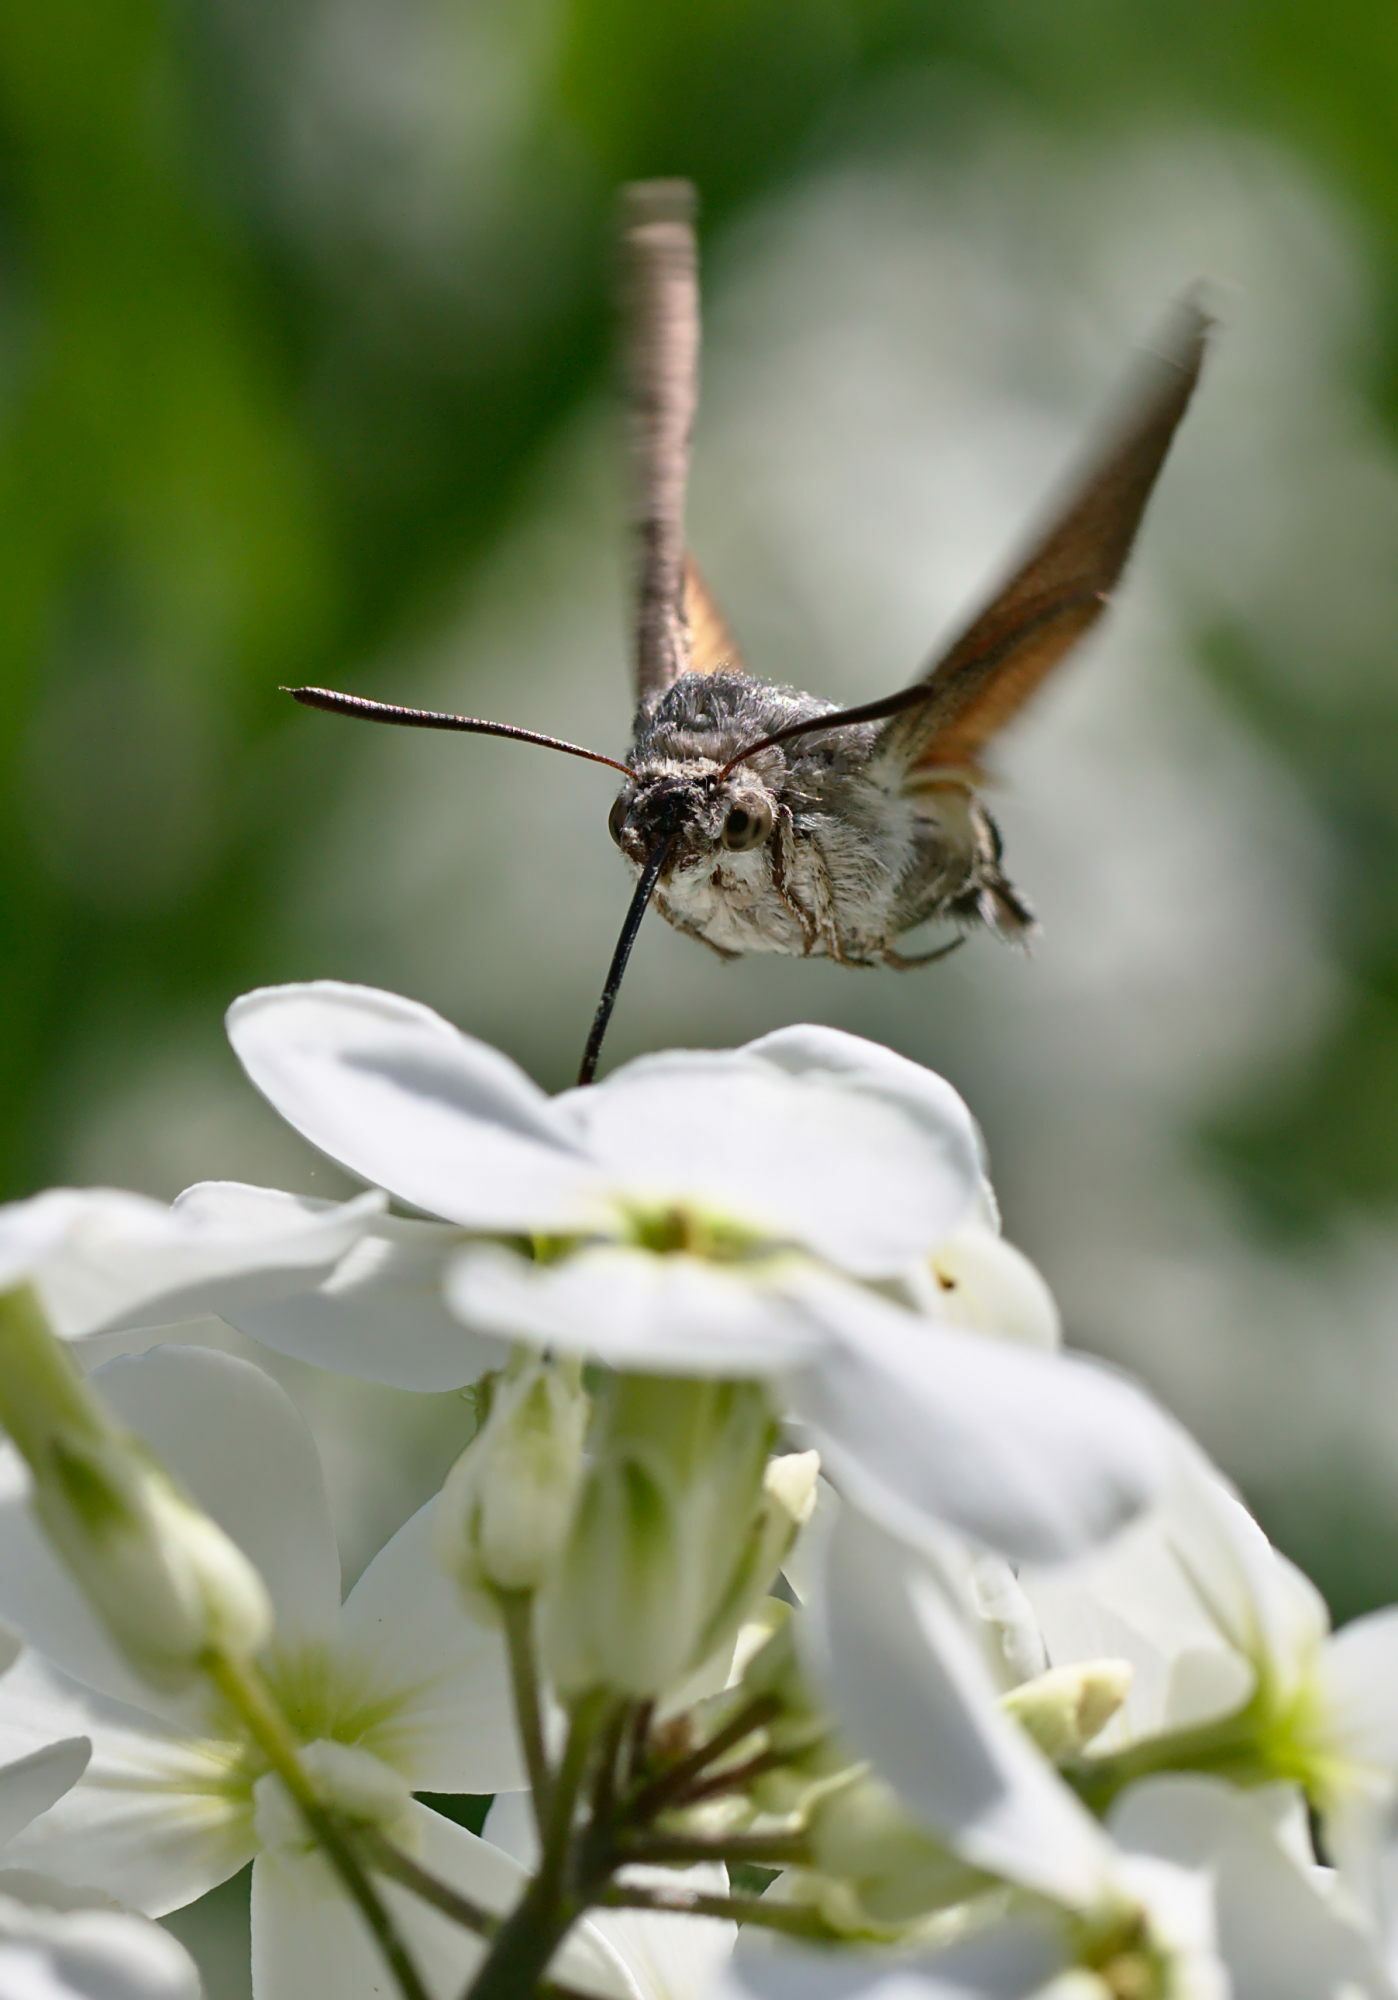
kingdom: Animalia
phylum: Arthropoda
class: Insecta
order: Lepidoptera
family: Sphingidae
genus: Macroglossum
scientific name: Macroglossum stellatarum
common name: Humming-bird hawk-moth
